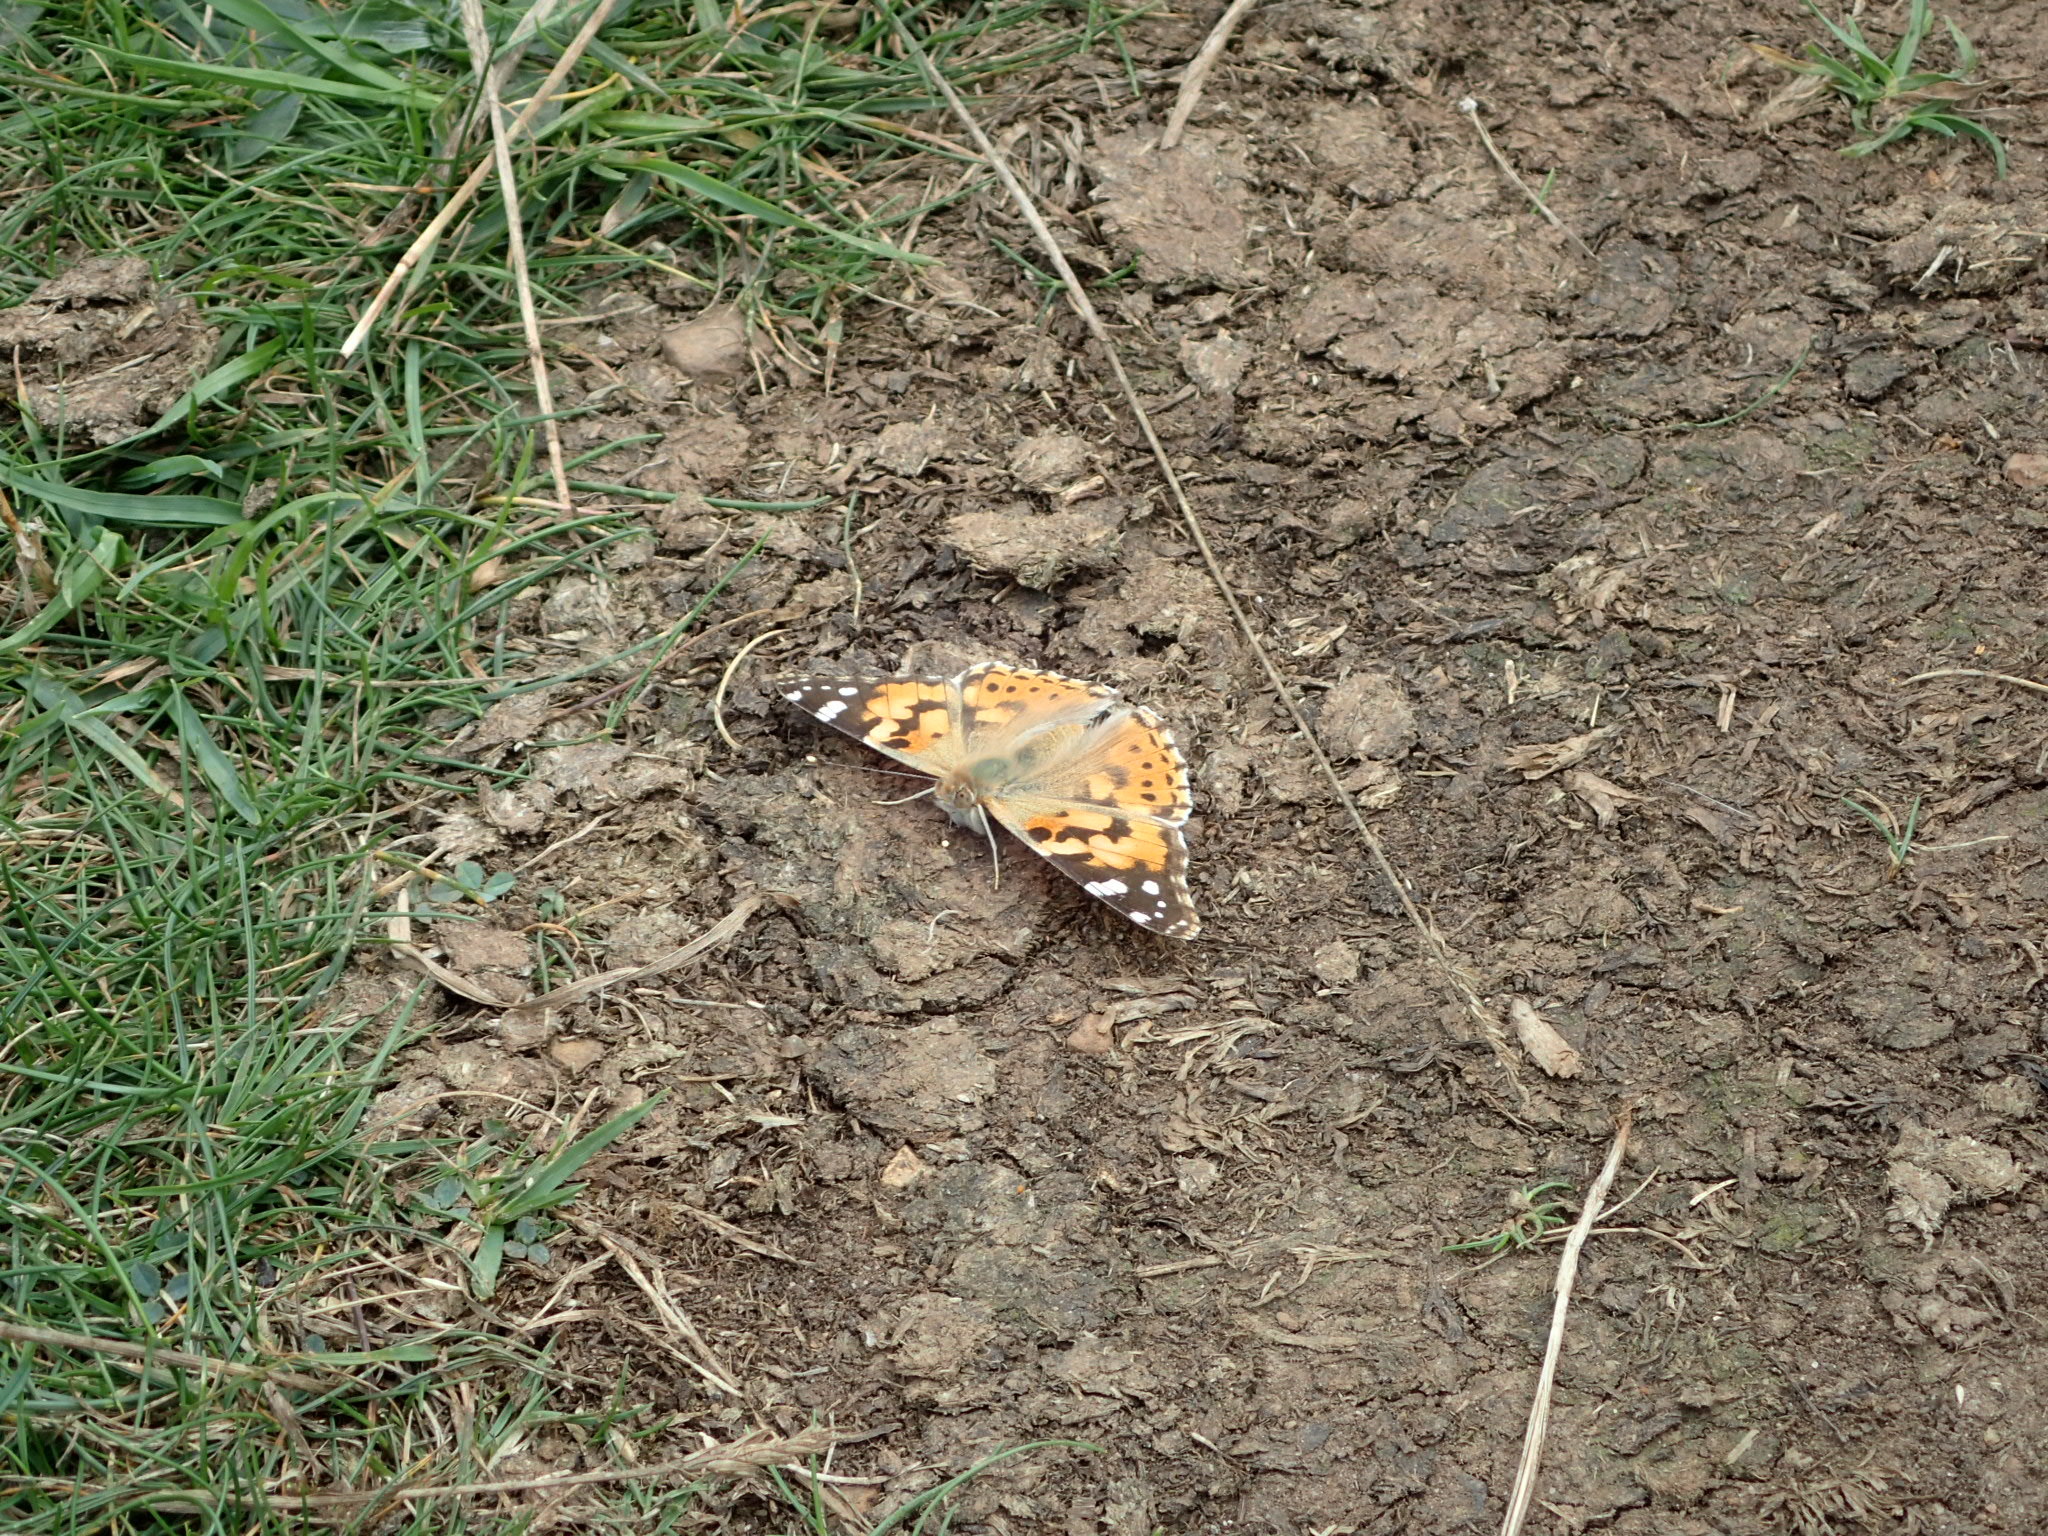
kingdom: Animalia
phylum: Arthropoda
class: Insecta
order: Lepidoptera
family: Nymphalidae
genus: Vanessa
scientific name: Vanessa cardui
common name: Painted lady
